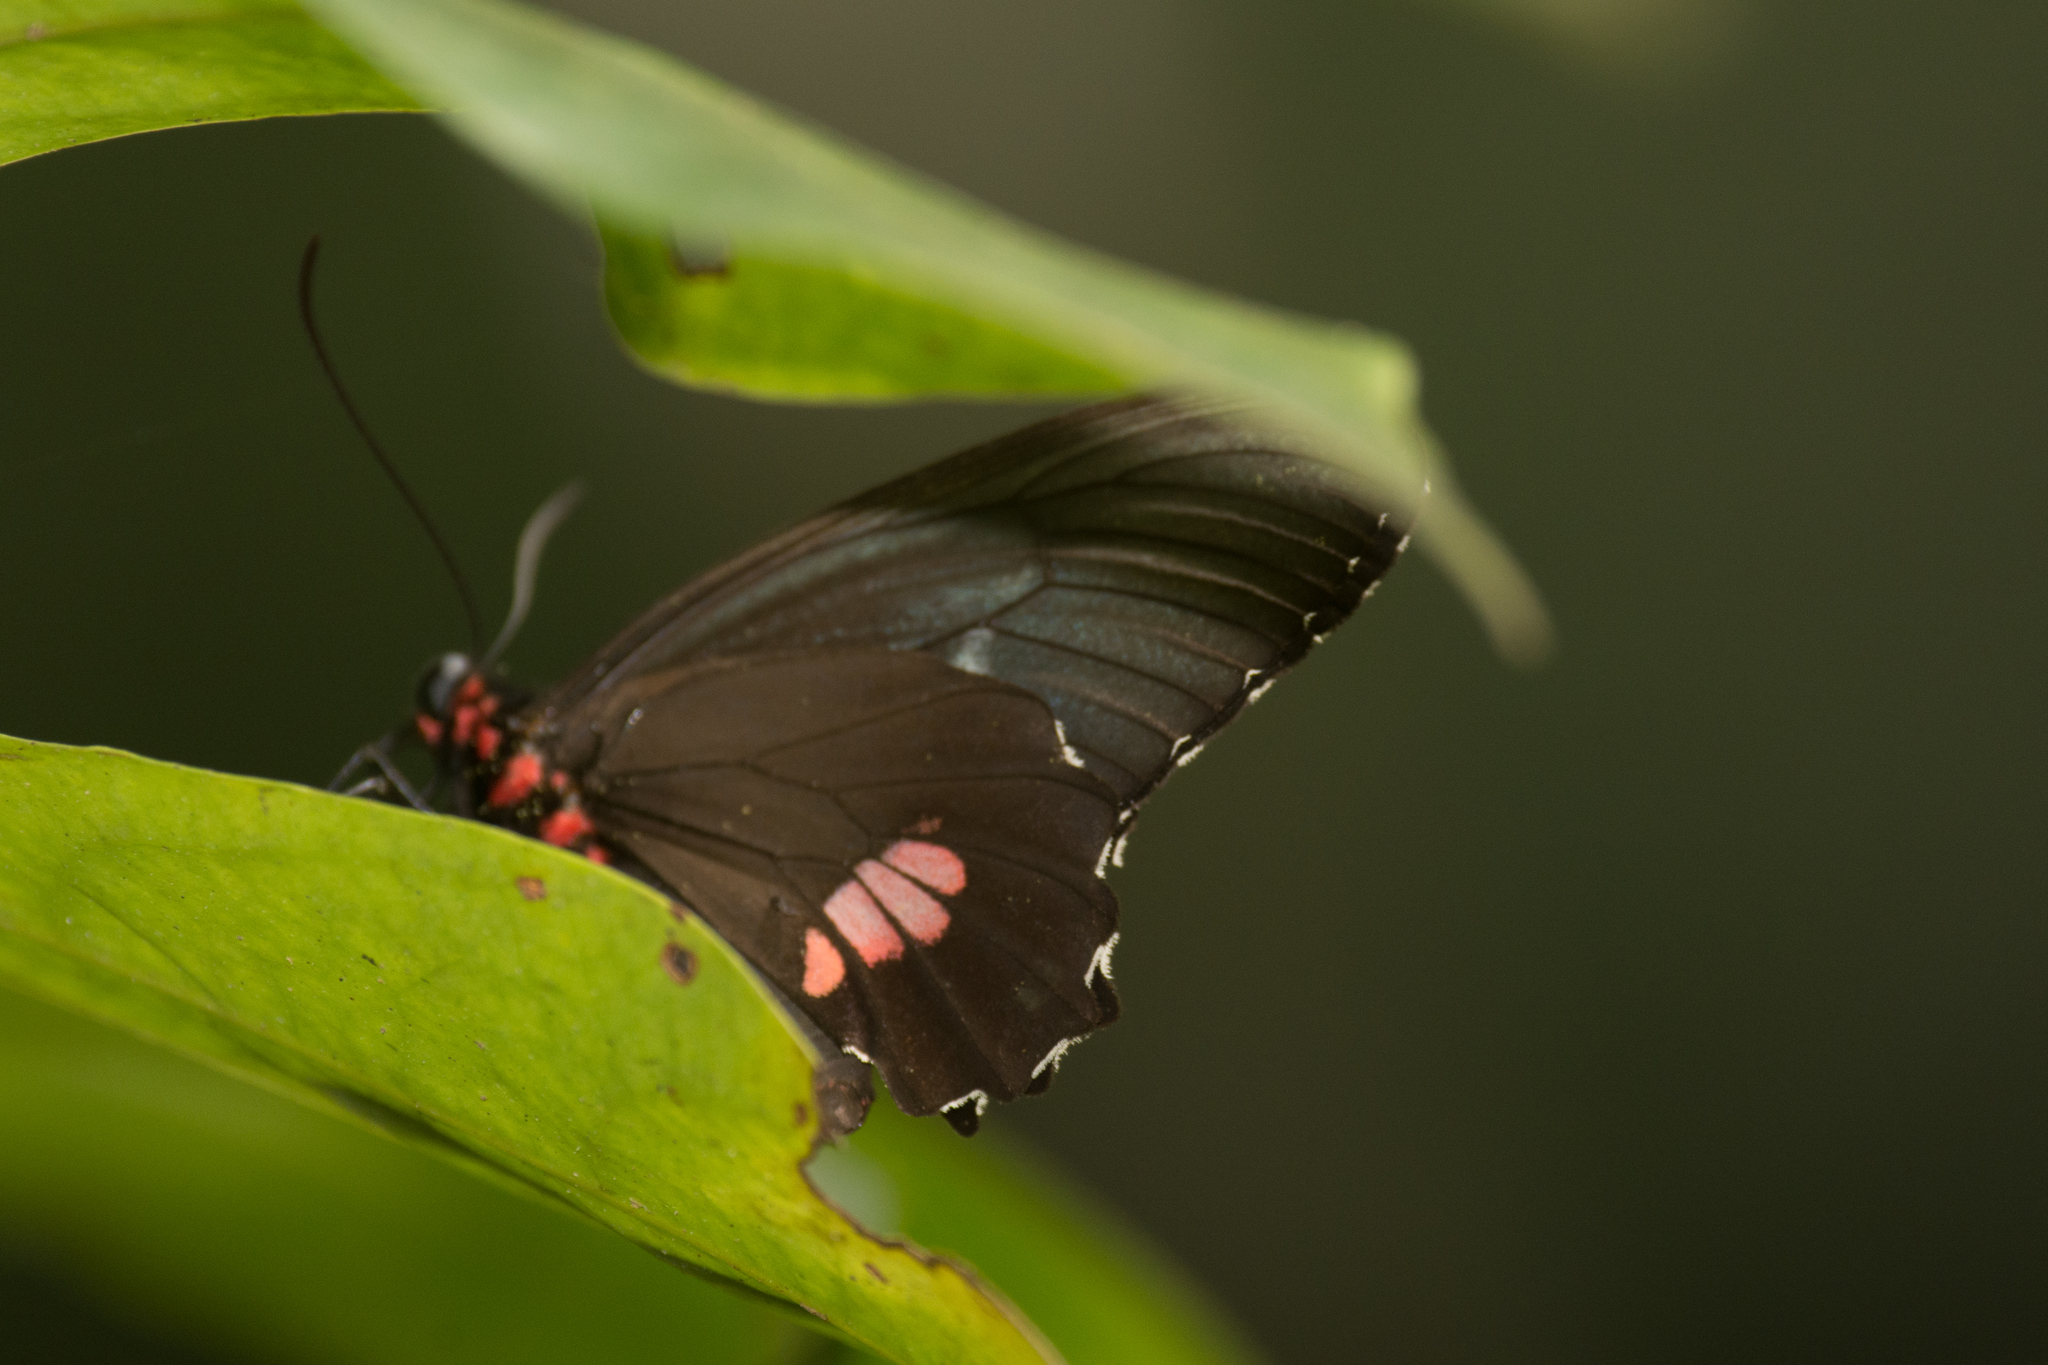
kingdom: Animalia
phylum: Arthropoda
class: Insecta
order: Lepidoptera
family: Papilionidae
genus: Parides
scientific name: Parides anchises
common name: Cattle heart
